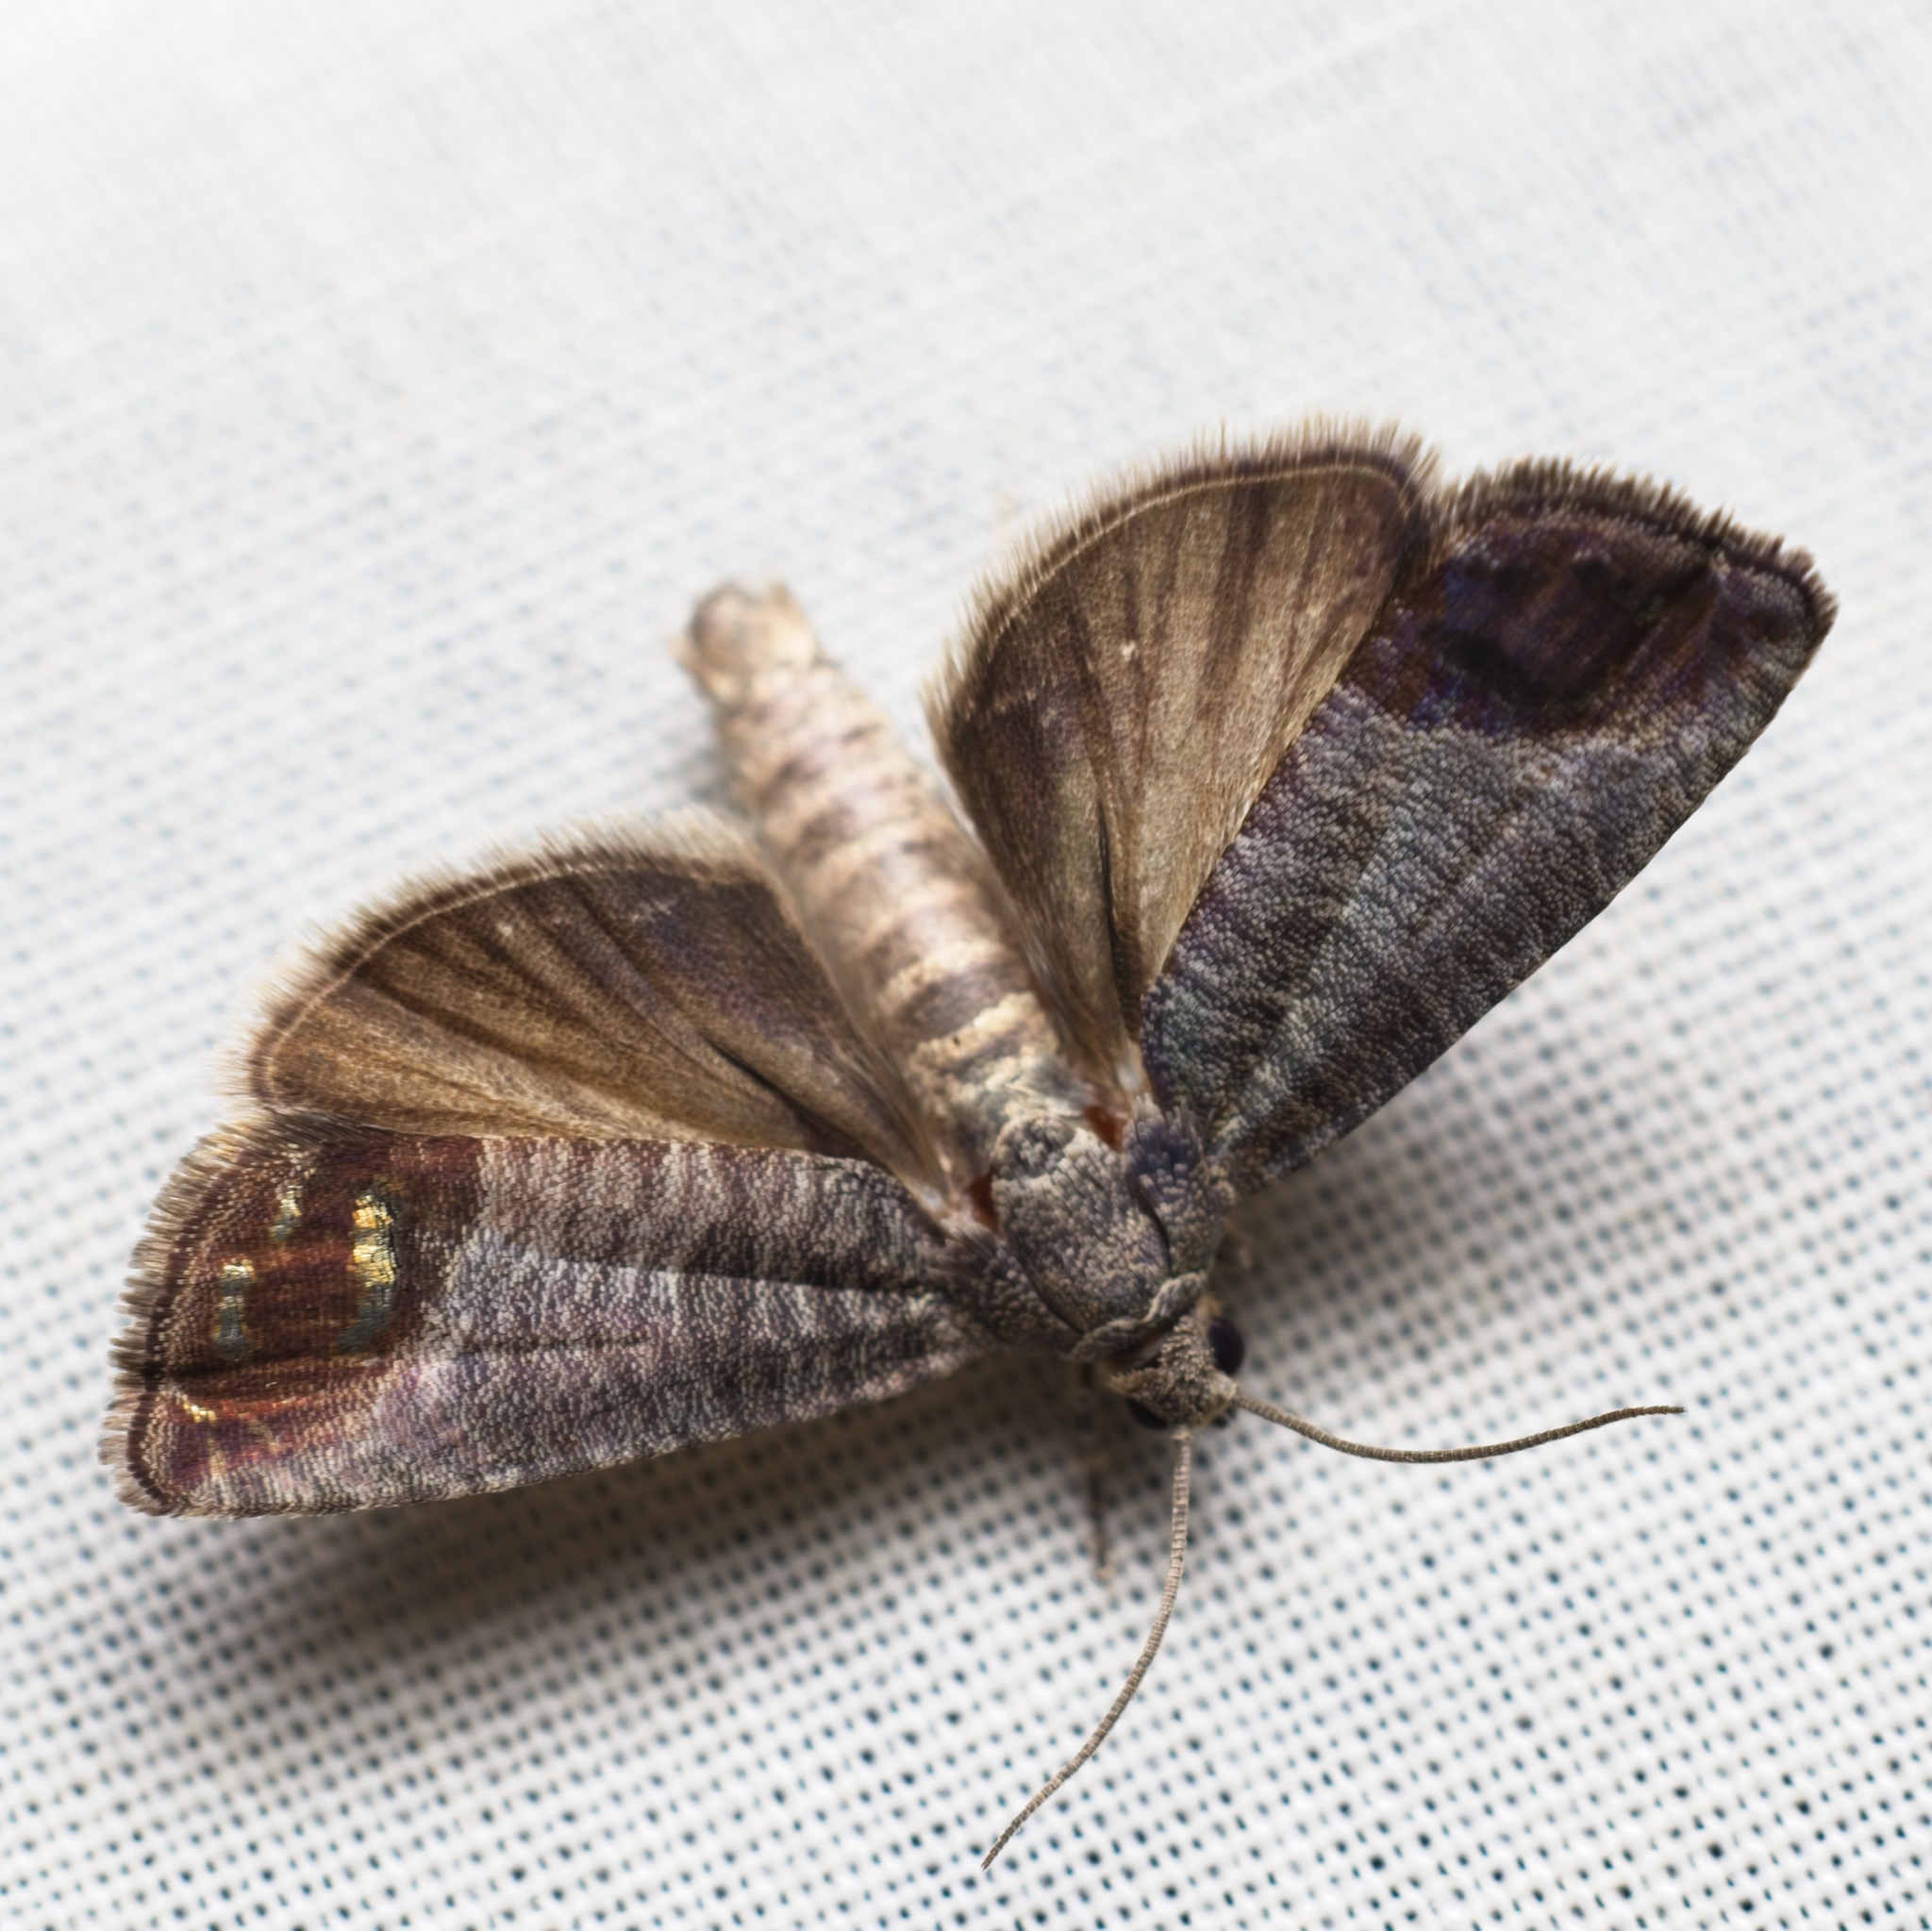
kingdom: Animalia
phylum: Arthropoda
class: Insecta
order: Lepidoptera
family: Tortricidae
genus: Cydia
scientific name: Cydia pomonella
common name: Codling moth
